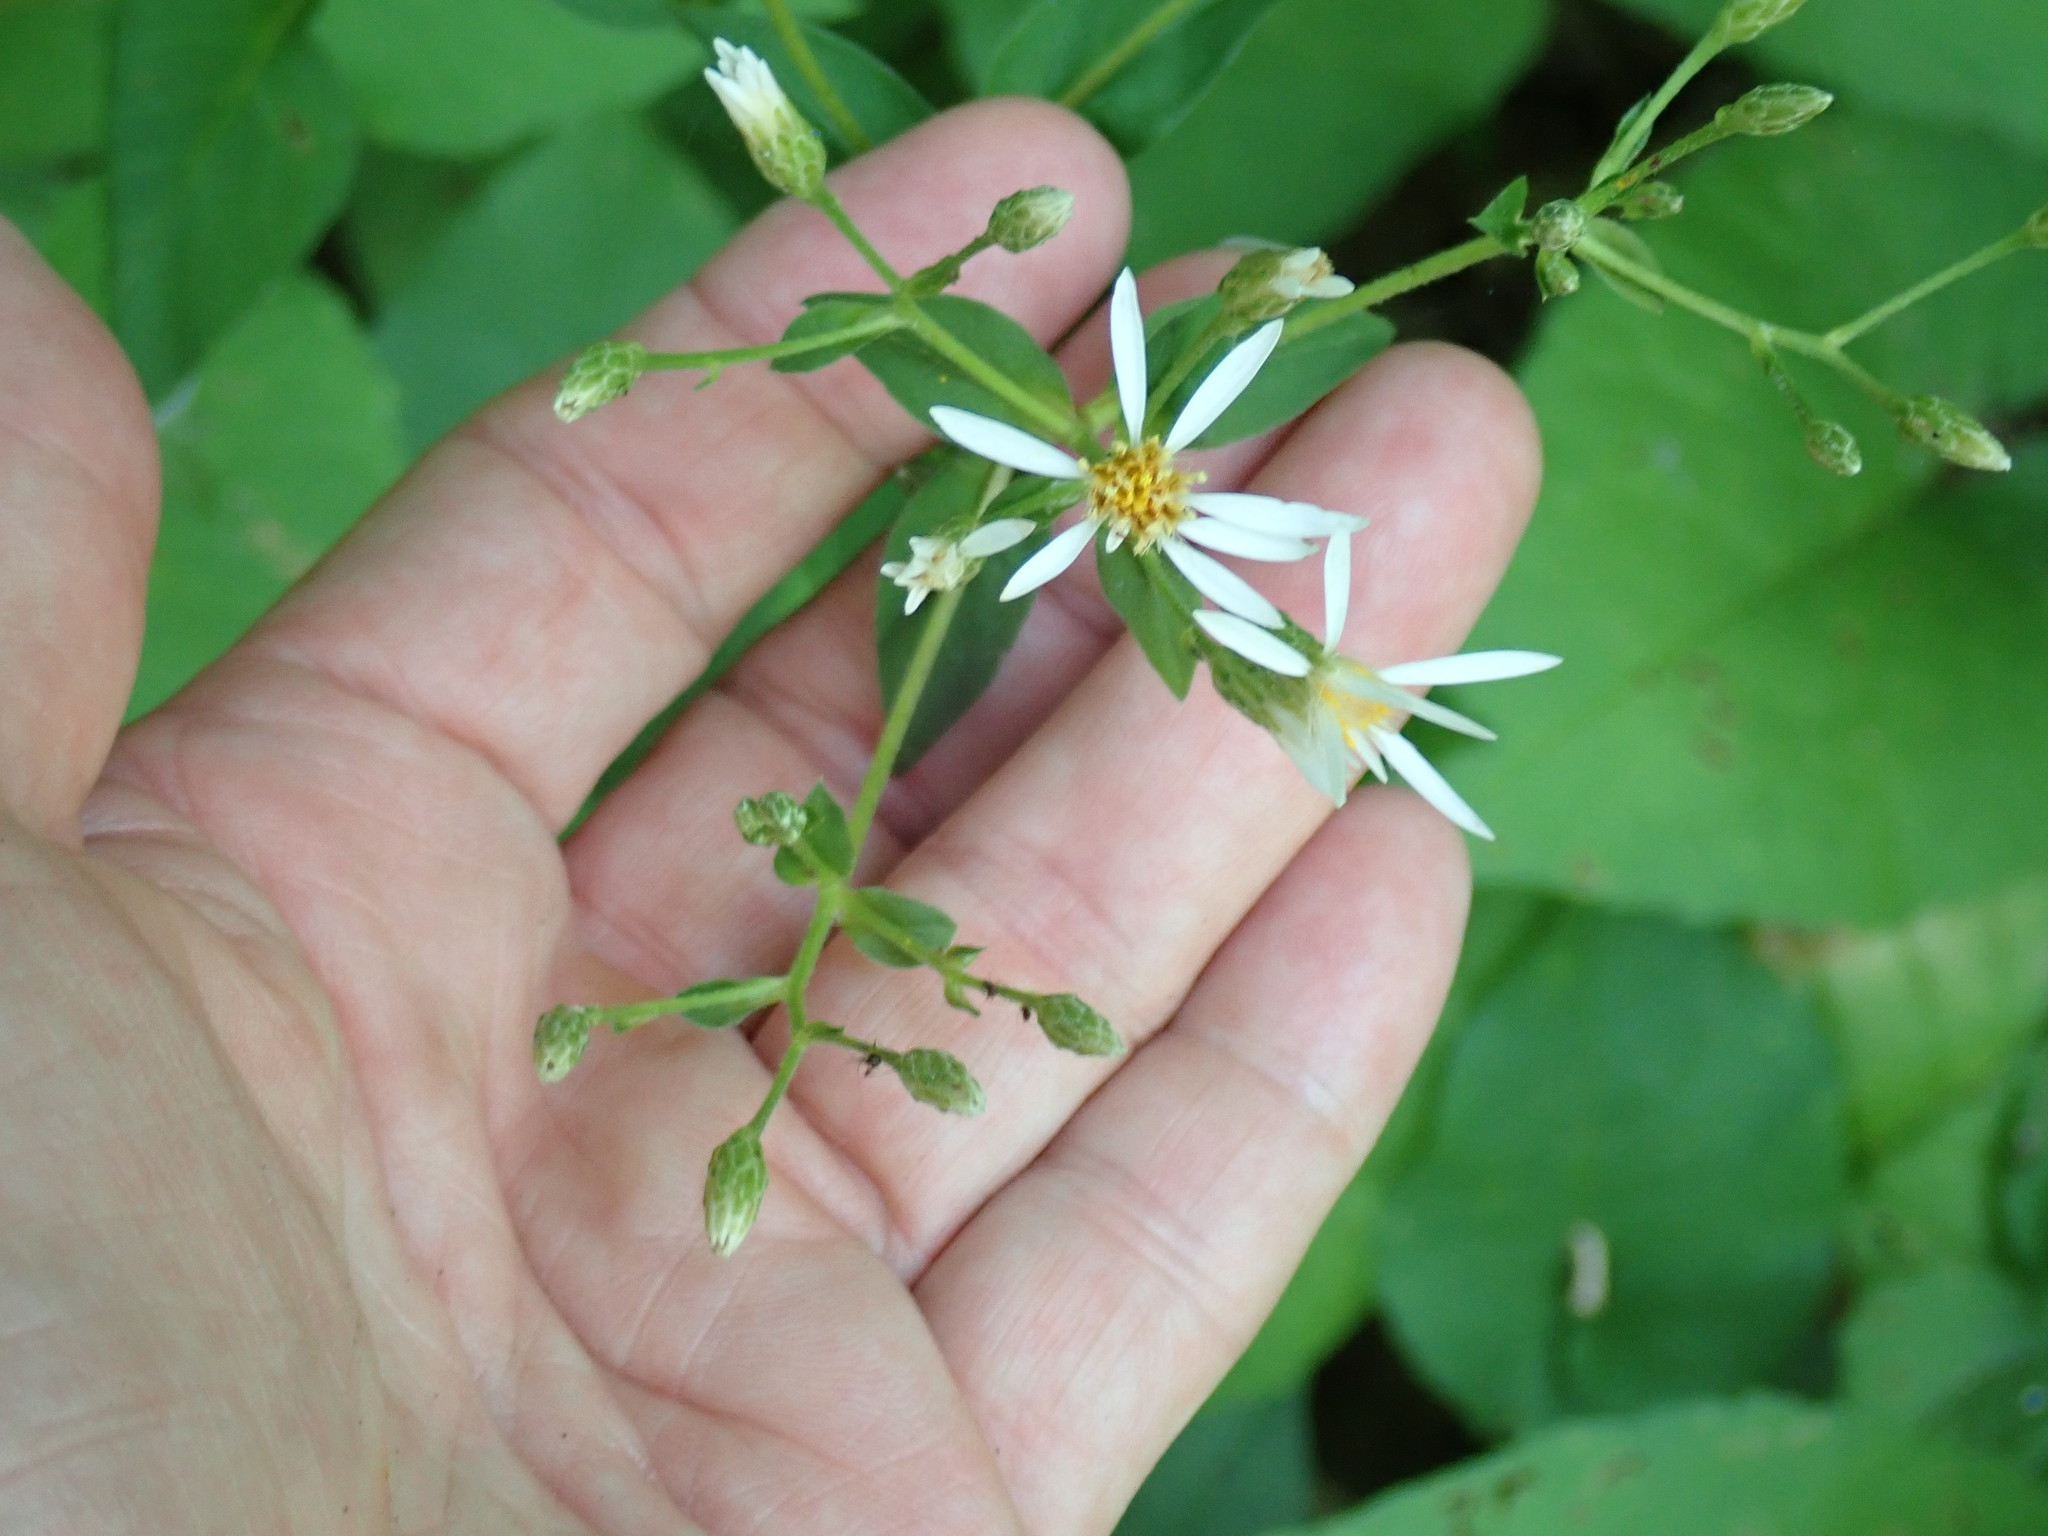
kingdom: Plantae
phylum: Tracheophyta
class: Magnoliopsida
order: Asterales
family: Asteraceae
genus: Eurybia
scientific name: Eurybia macrophylla
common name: Big-leaved aster
